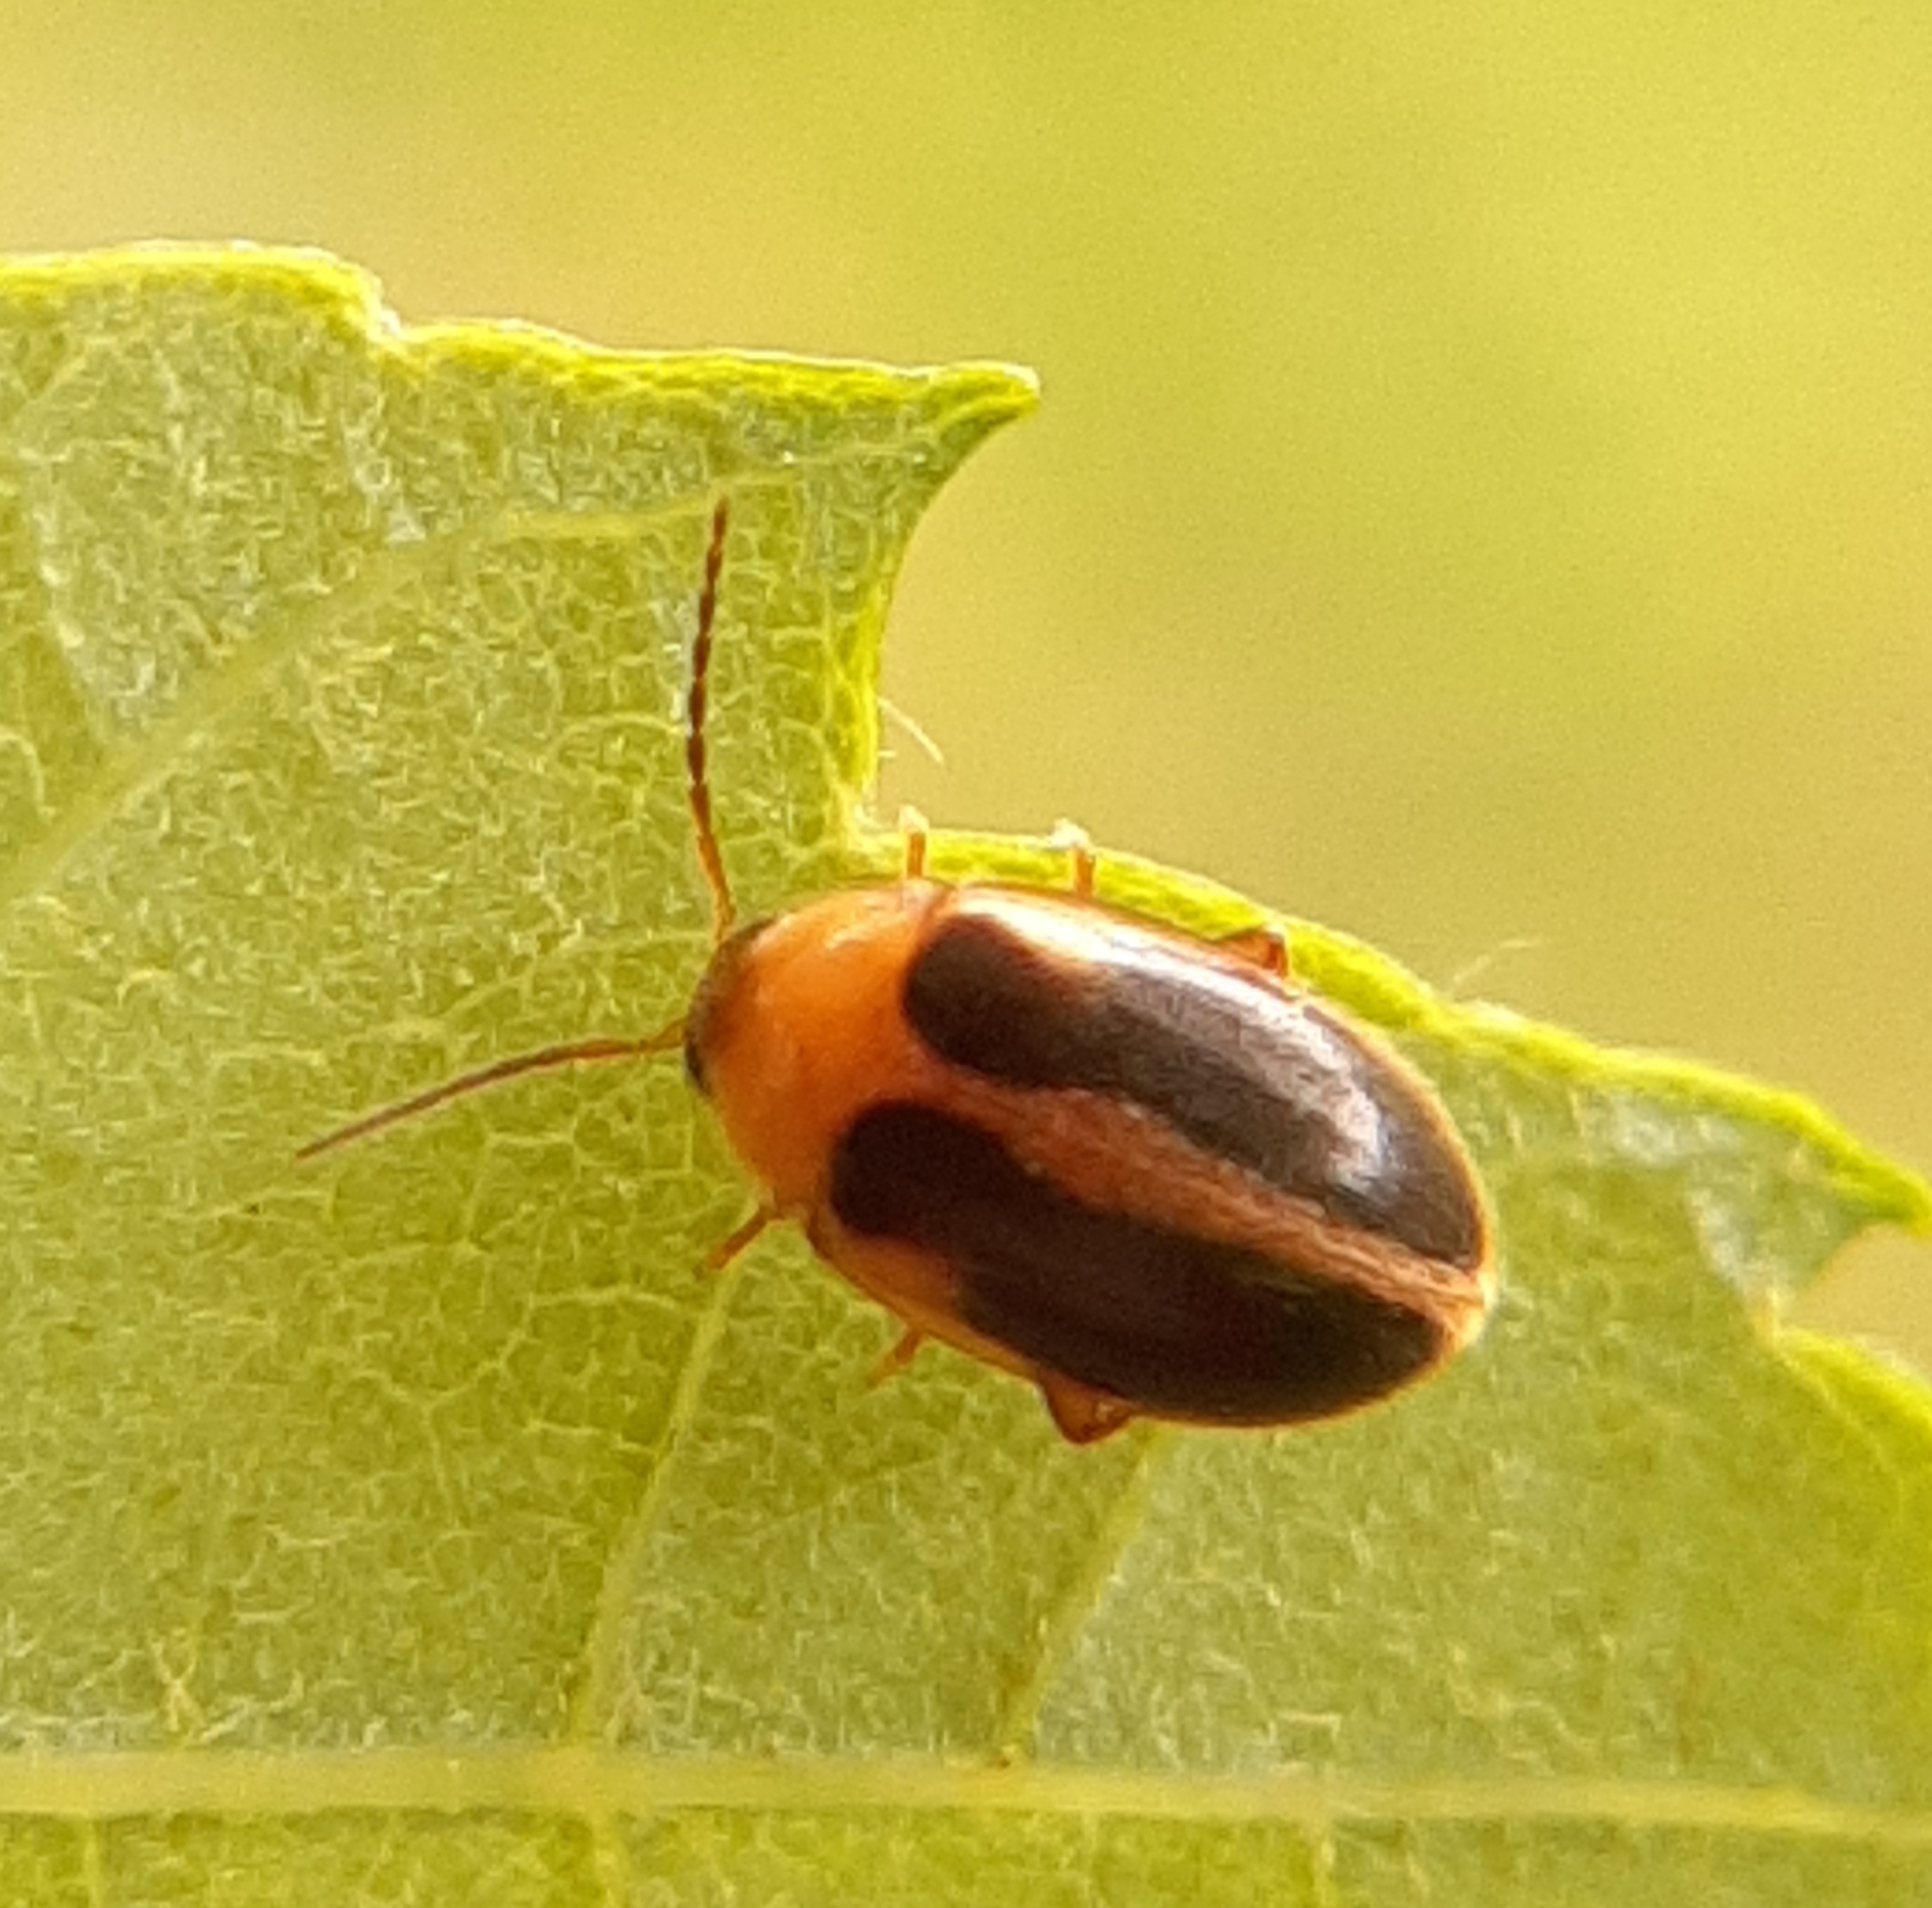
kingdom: Animalia
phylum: Arthropoda
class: Insecta
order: Coleoptera
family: Scirtidae
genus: Sacodes
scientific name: Sacodes pulchella
